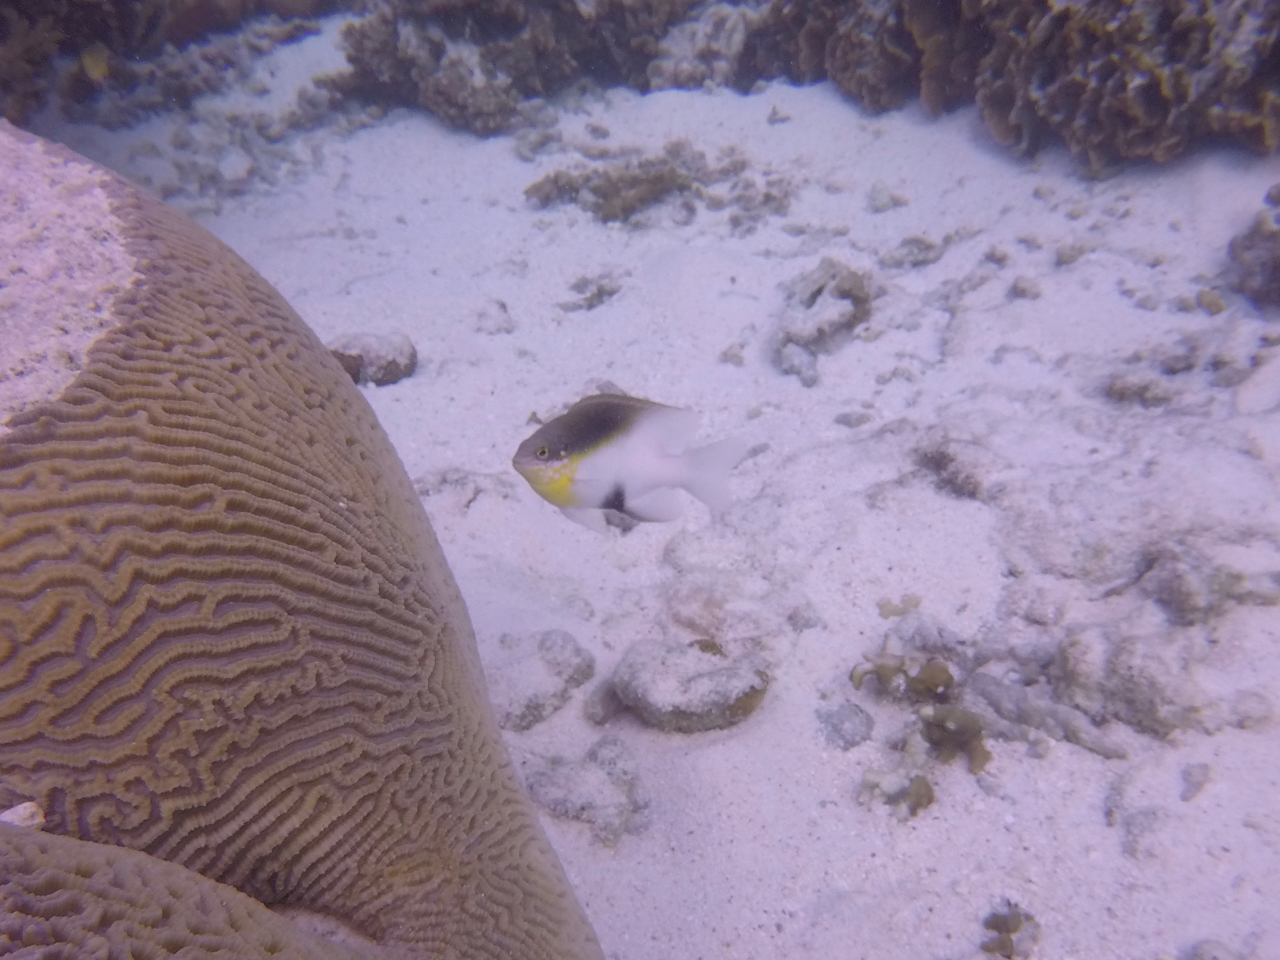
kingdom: Animalia
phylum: Chordata
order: Perciformes
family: Pomacentridae
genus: Dischistodus
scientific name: Dischistodus melanotus
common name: Black-vent damsel
